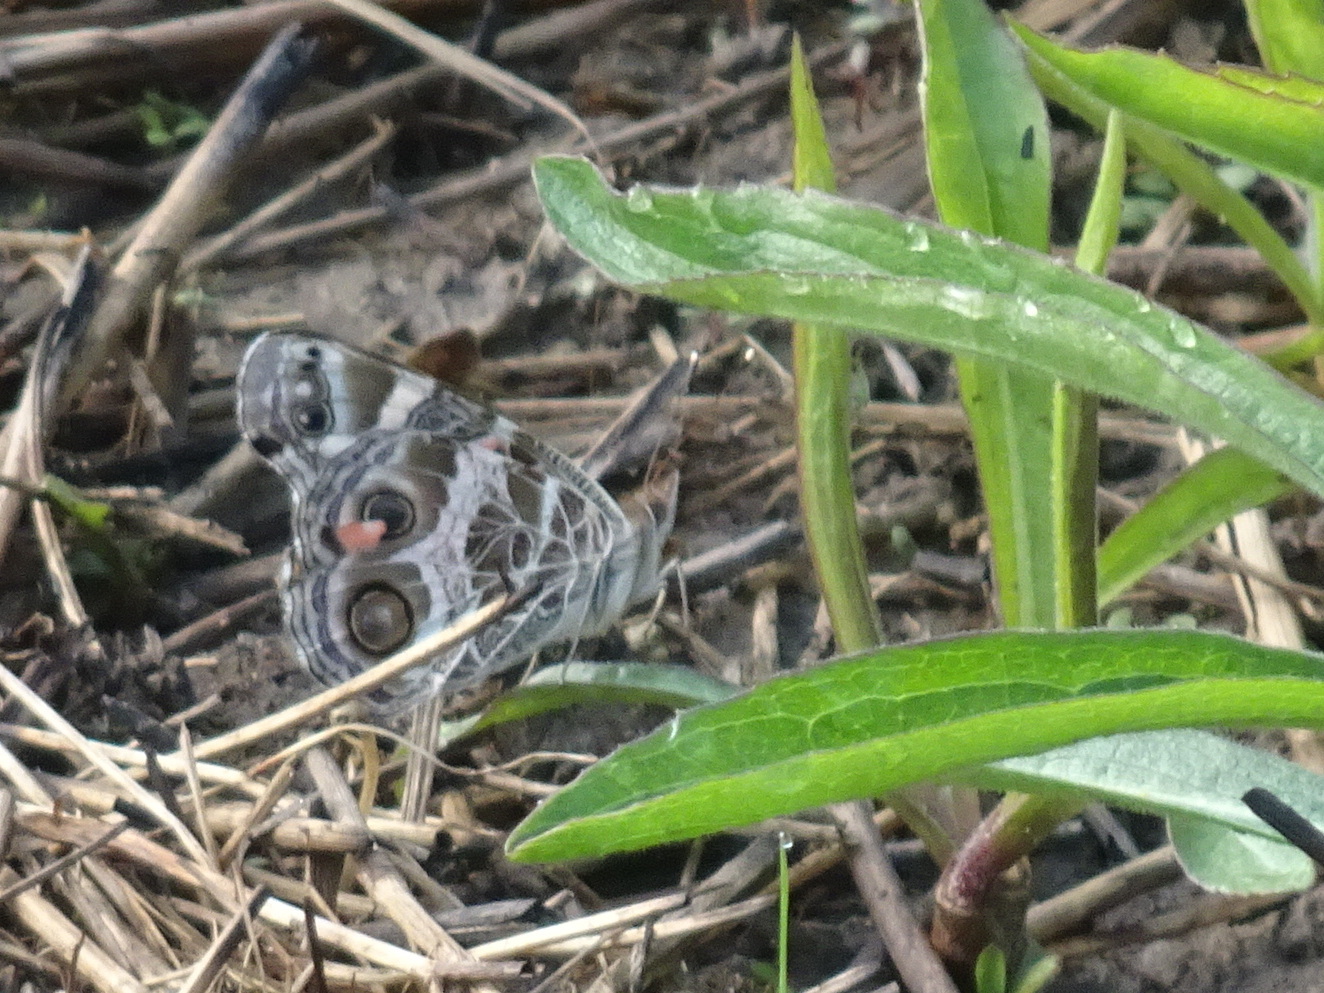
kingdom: Animalia
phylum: Arthropoda
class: Insecta
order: Lepidoptera
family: Nymphalidae
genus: Vanessa
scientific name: Vanessa virginiensis
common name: American lady
